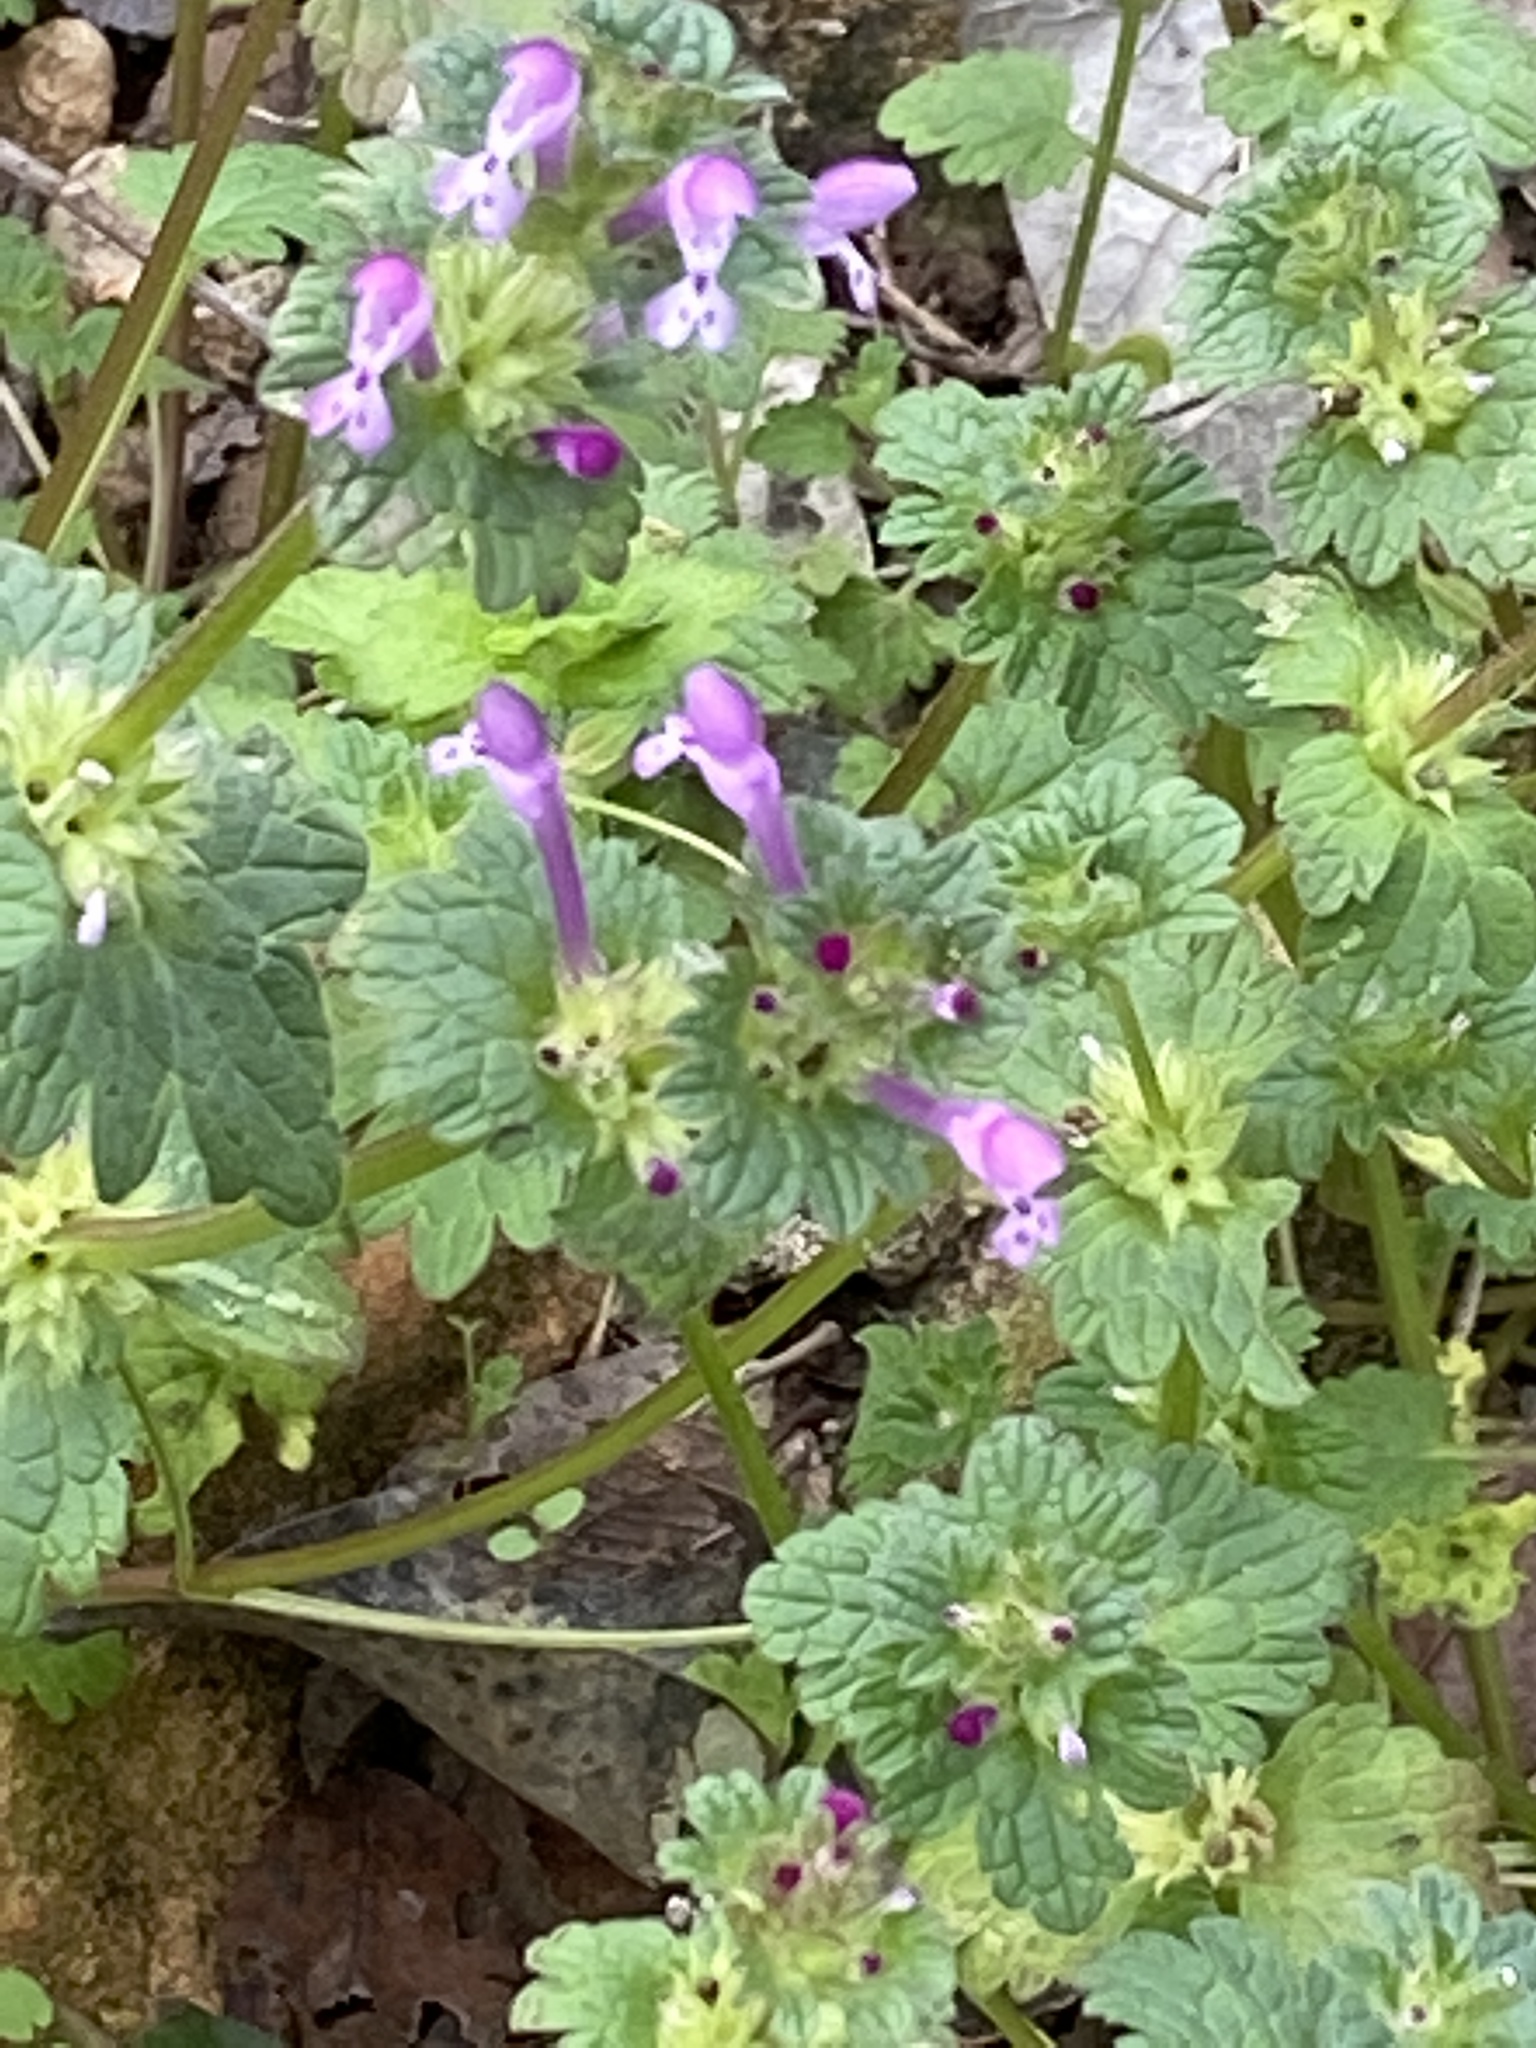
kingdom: Plantae
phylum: Tracheophyta
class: Magnoliopsida
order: Lamiales
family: Lamiaceae
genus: Lamium
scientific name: Lamium amplexicaule
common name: Henbit dead-nettle
